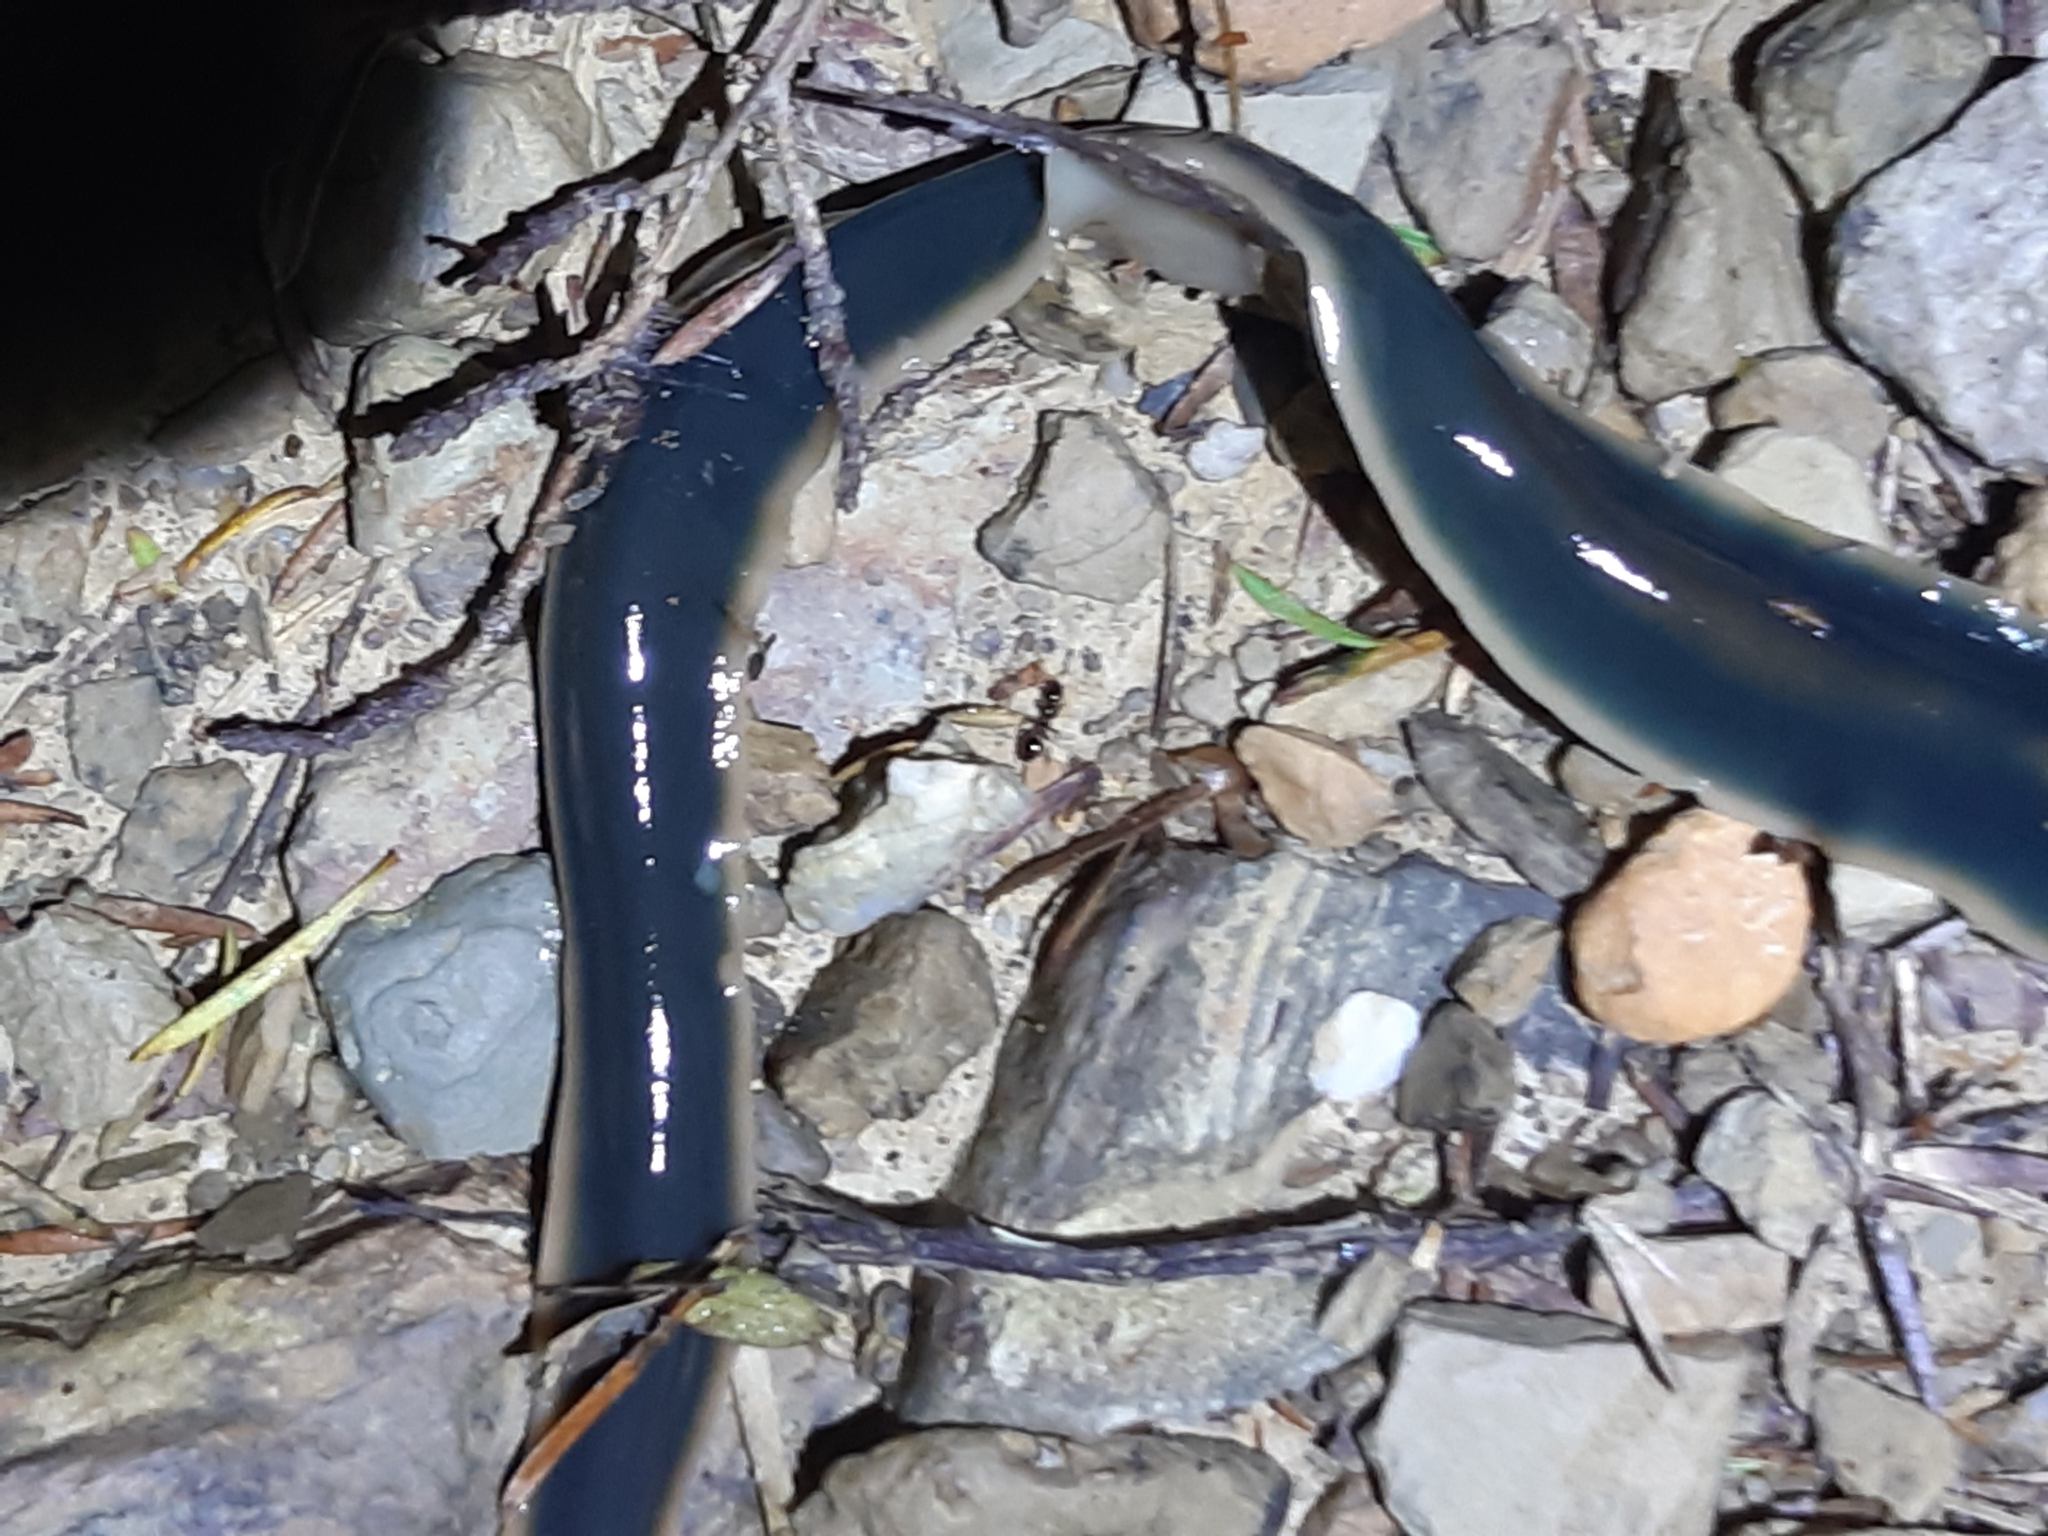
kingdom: Animalia
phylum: Platyhelminthes
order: Tricladida
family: Geoplanidae
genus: Australopacifica
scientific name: Australopacifica
